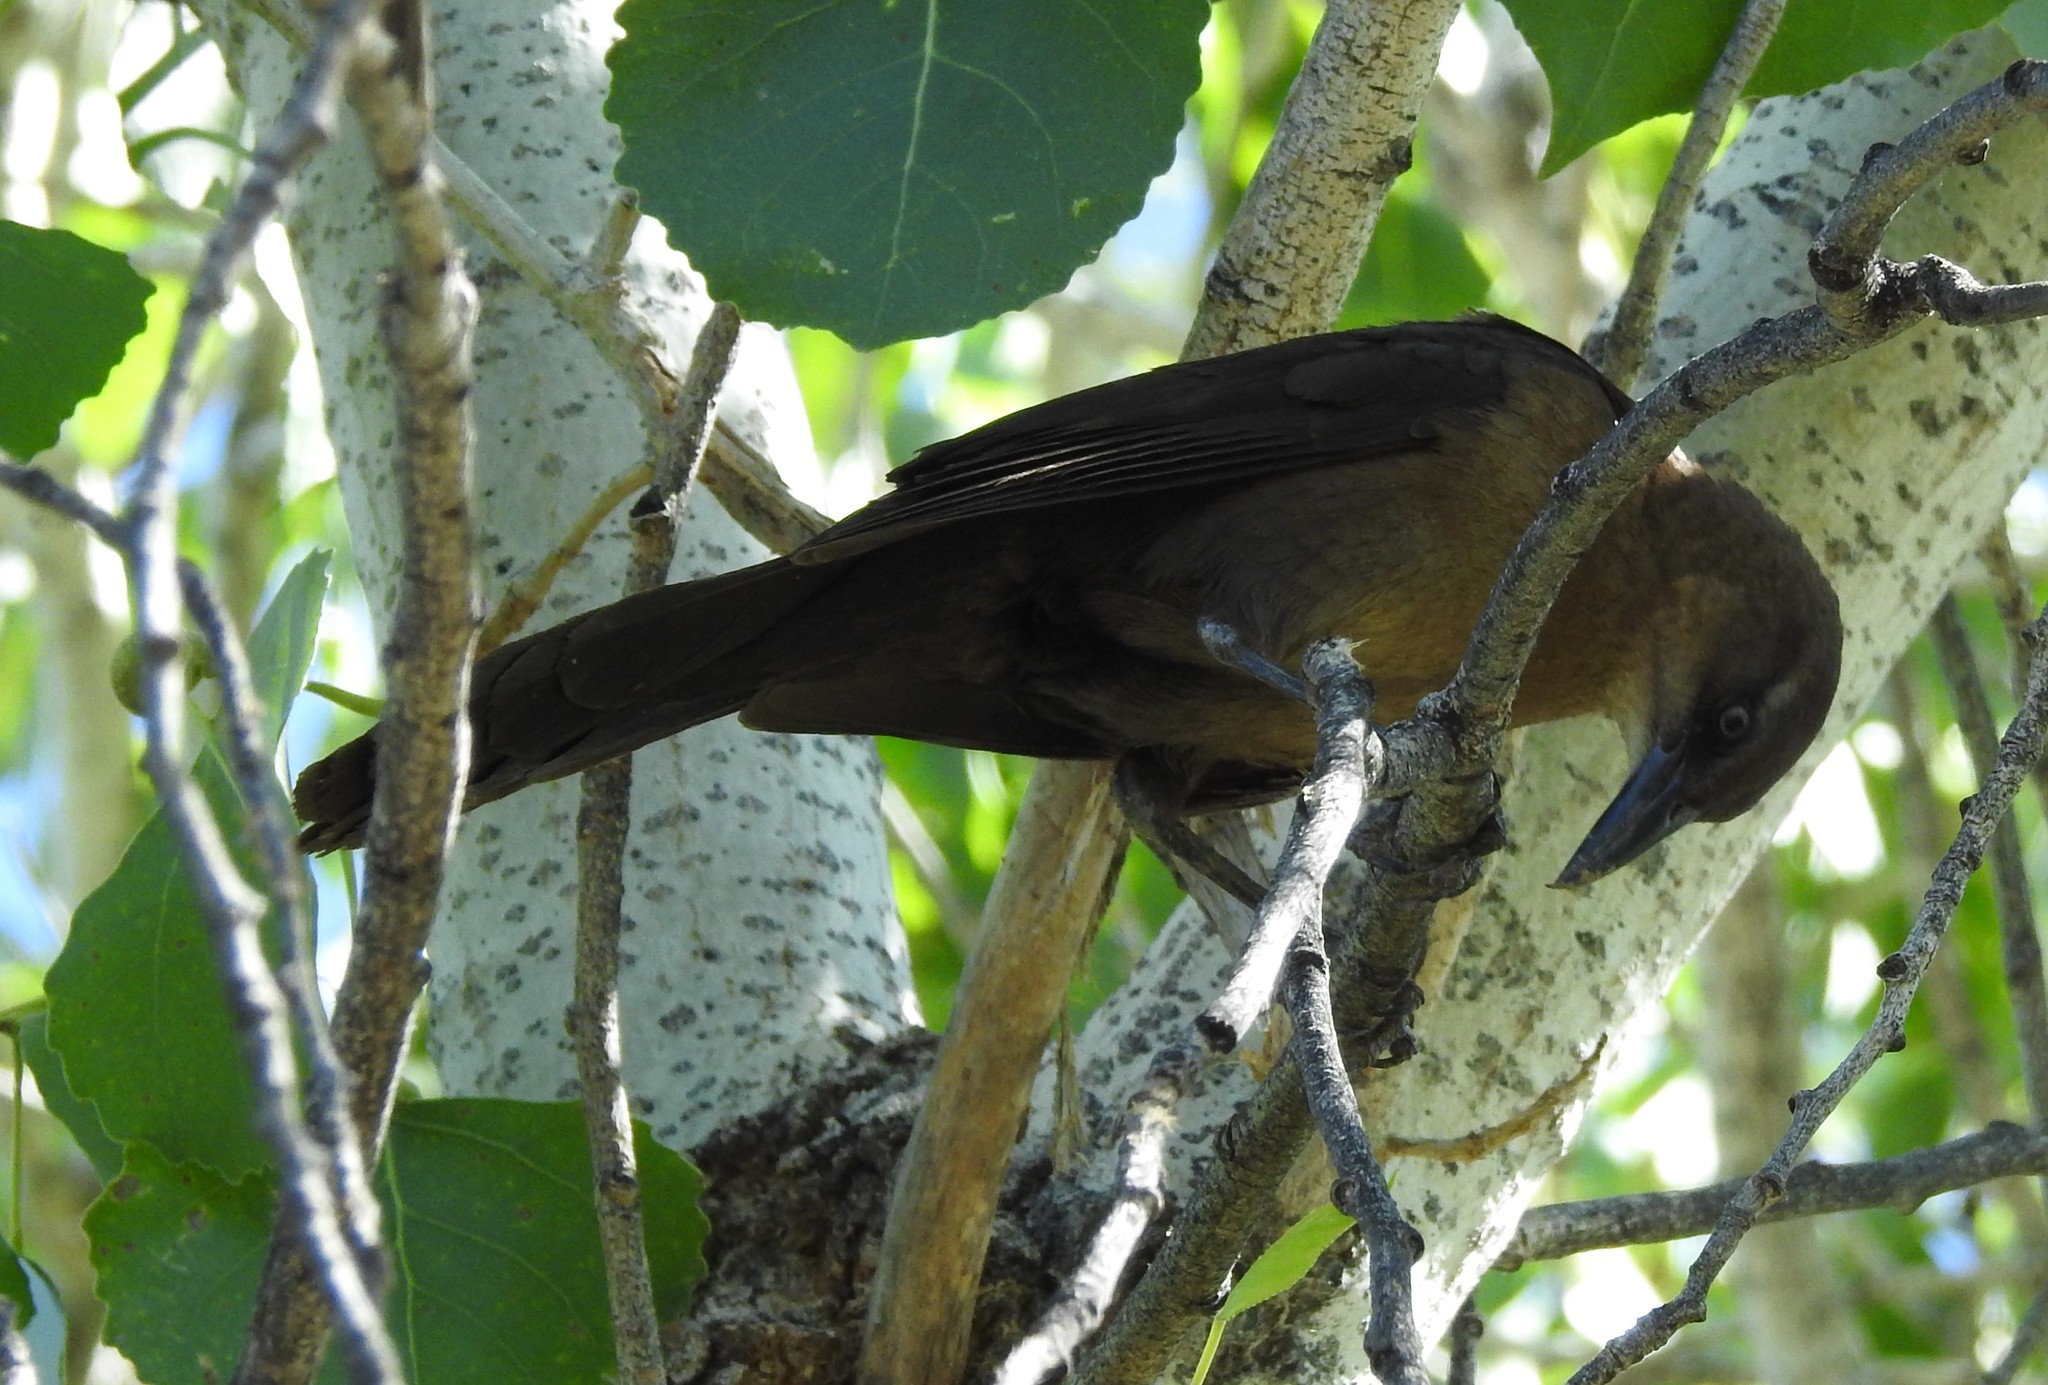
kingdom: Animalia
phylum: Chordata
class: Aves
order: Passeriformes
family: Icteridae
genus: Quiscalus
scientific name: Quiscalus mexicanus
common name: Great-tailed grackle
